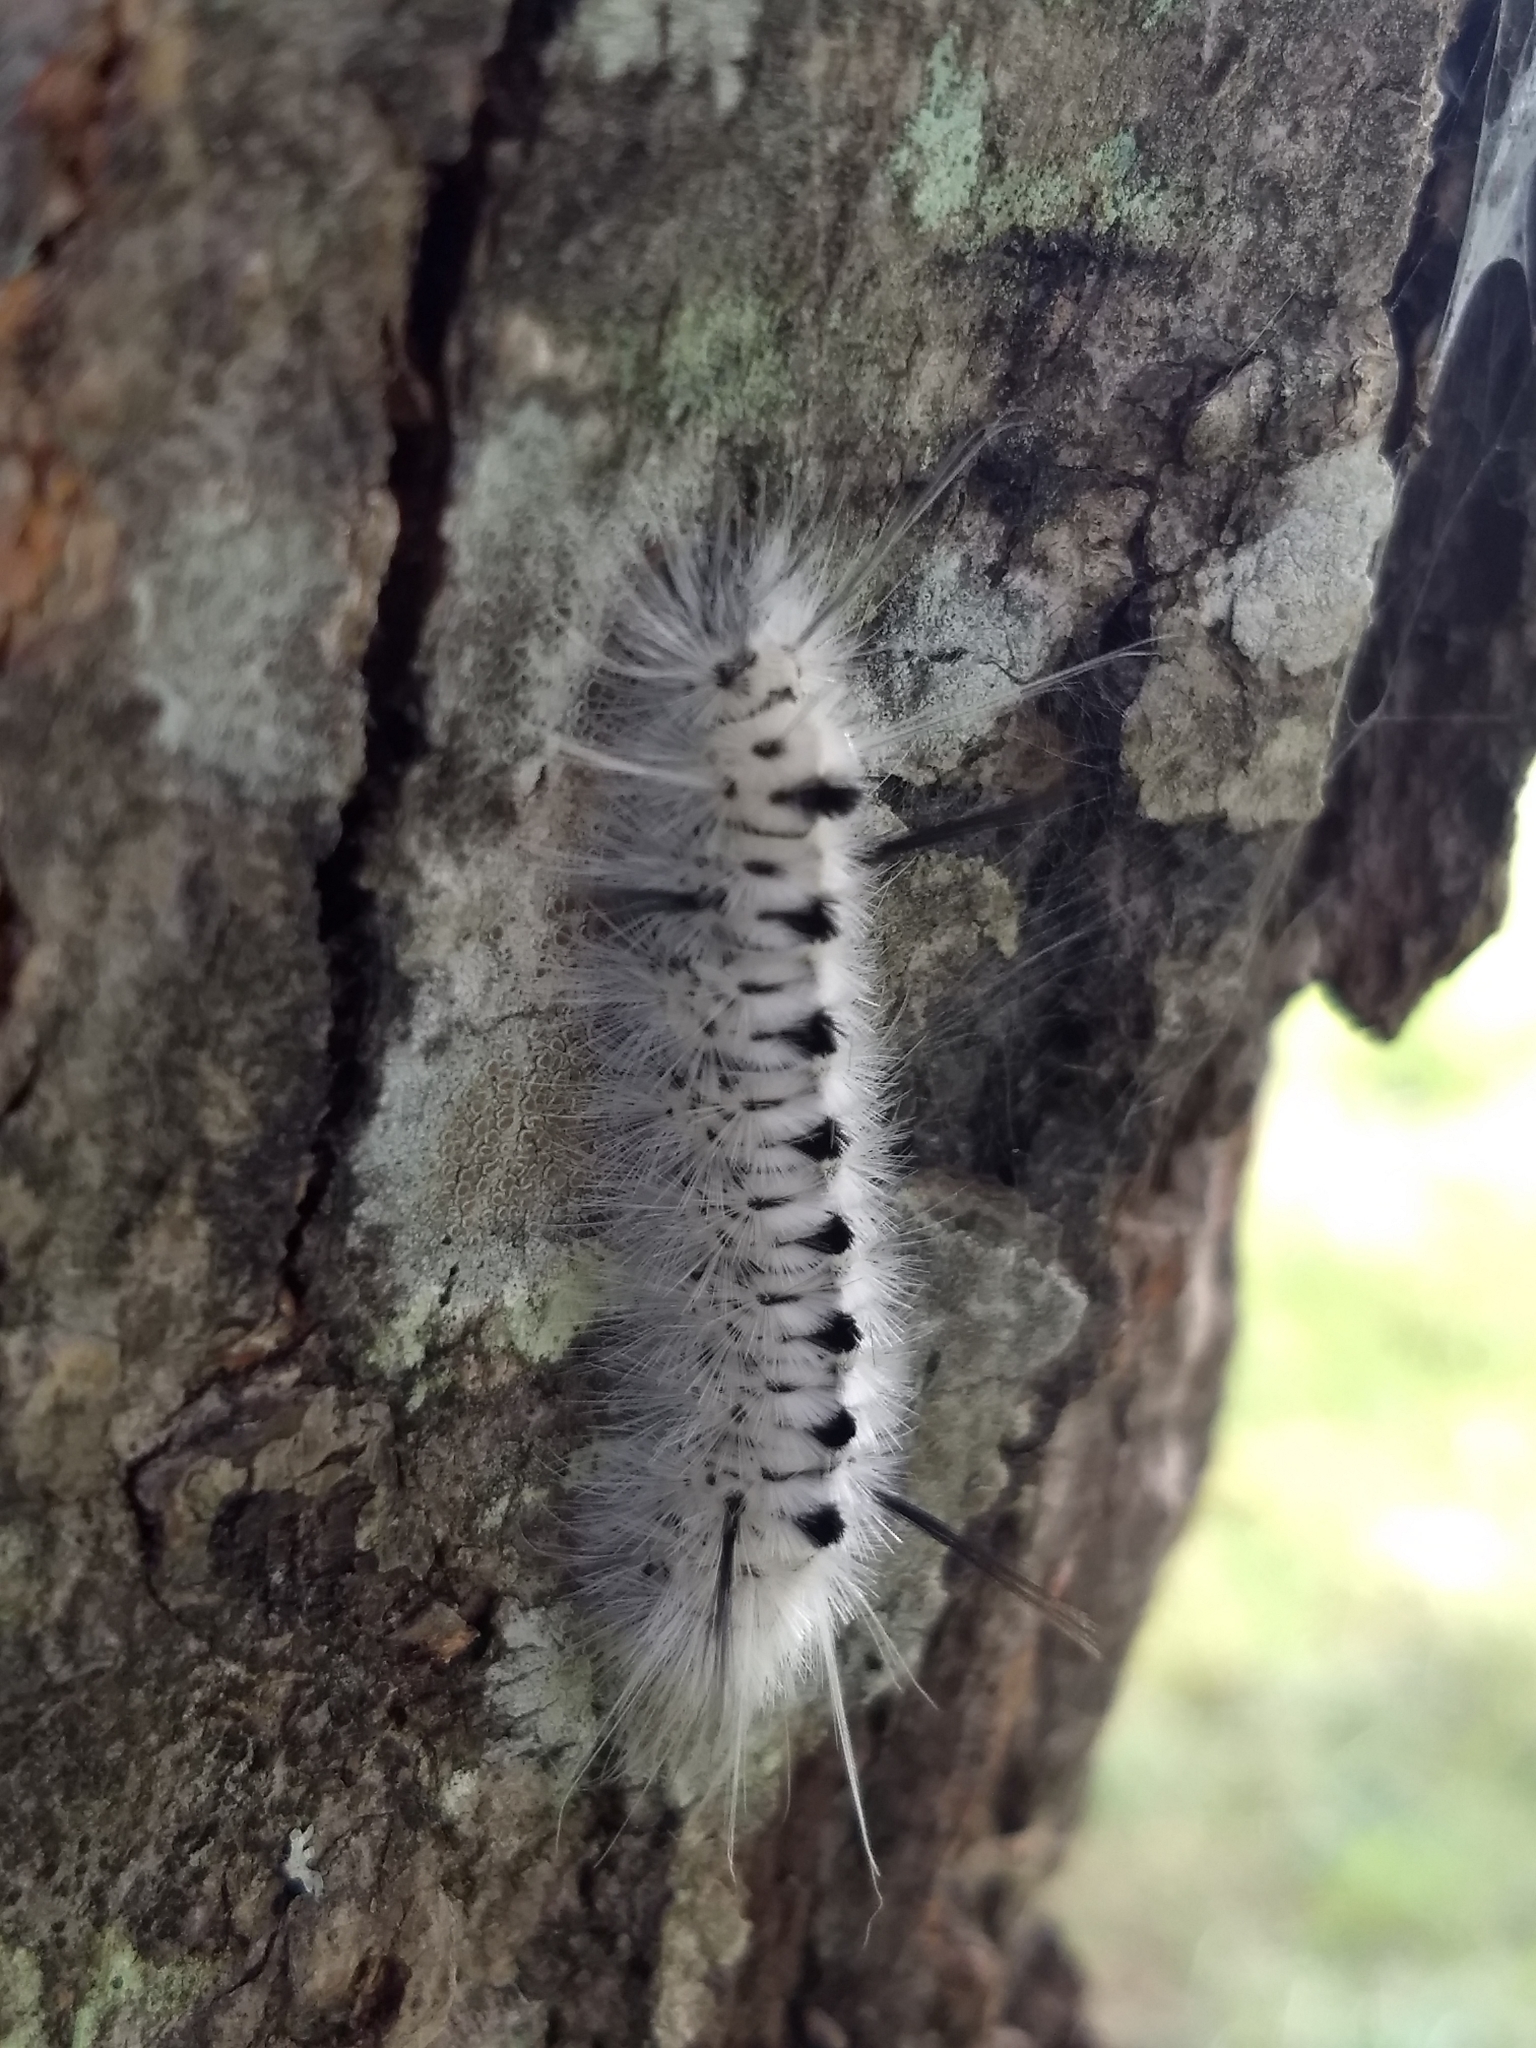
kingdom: Animalia
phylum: Arthropoda
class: Insecta
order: Lepidoptera
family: Erebidae
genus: Lophocampa
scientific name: Lophocampa caryae
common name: Hickory tussock moth
